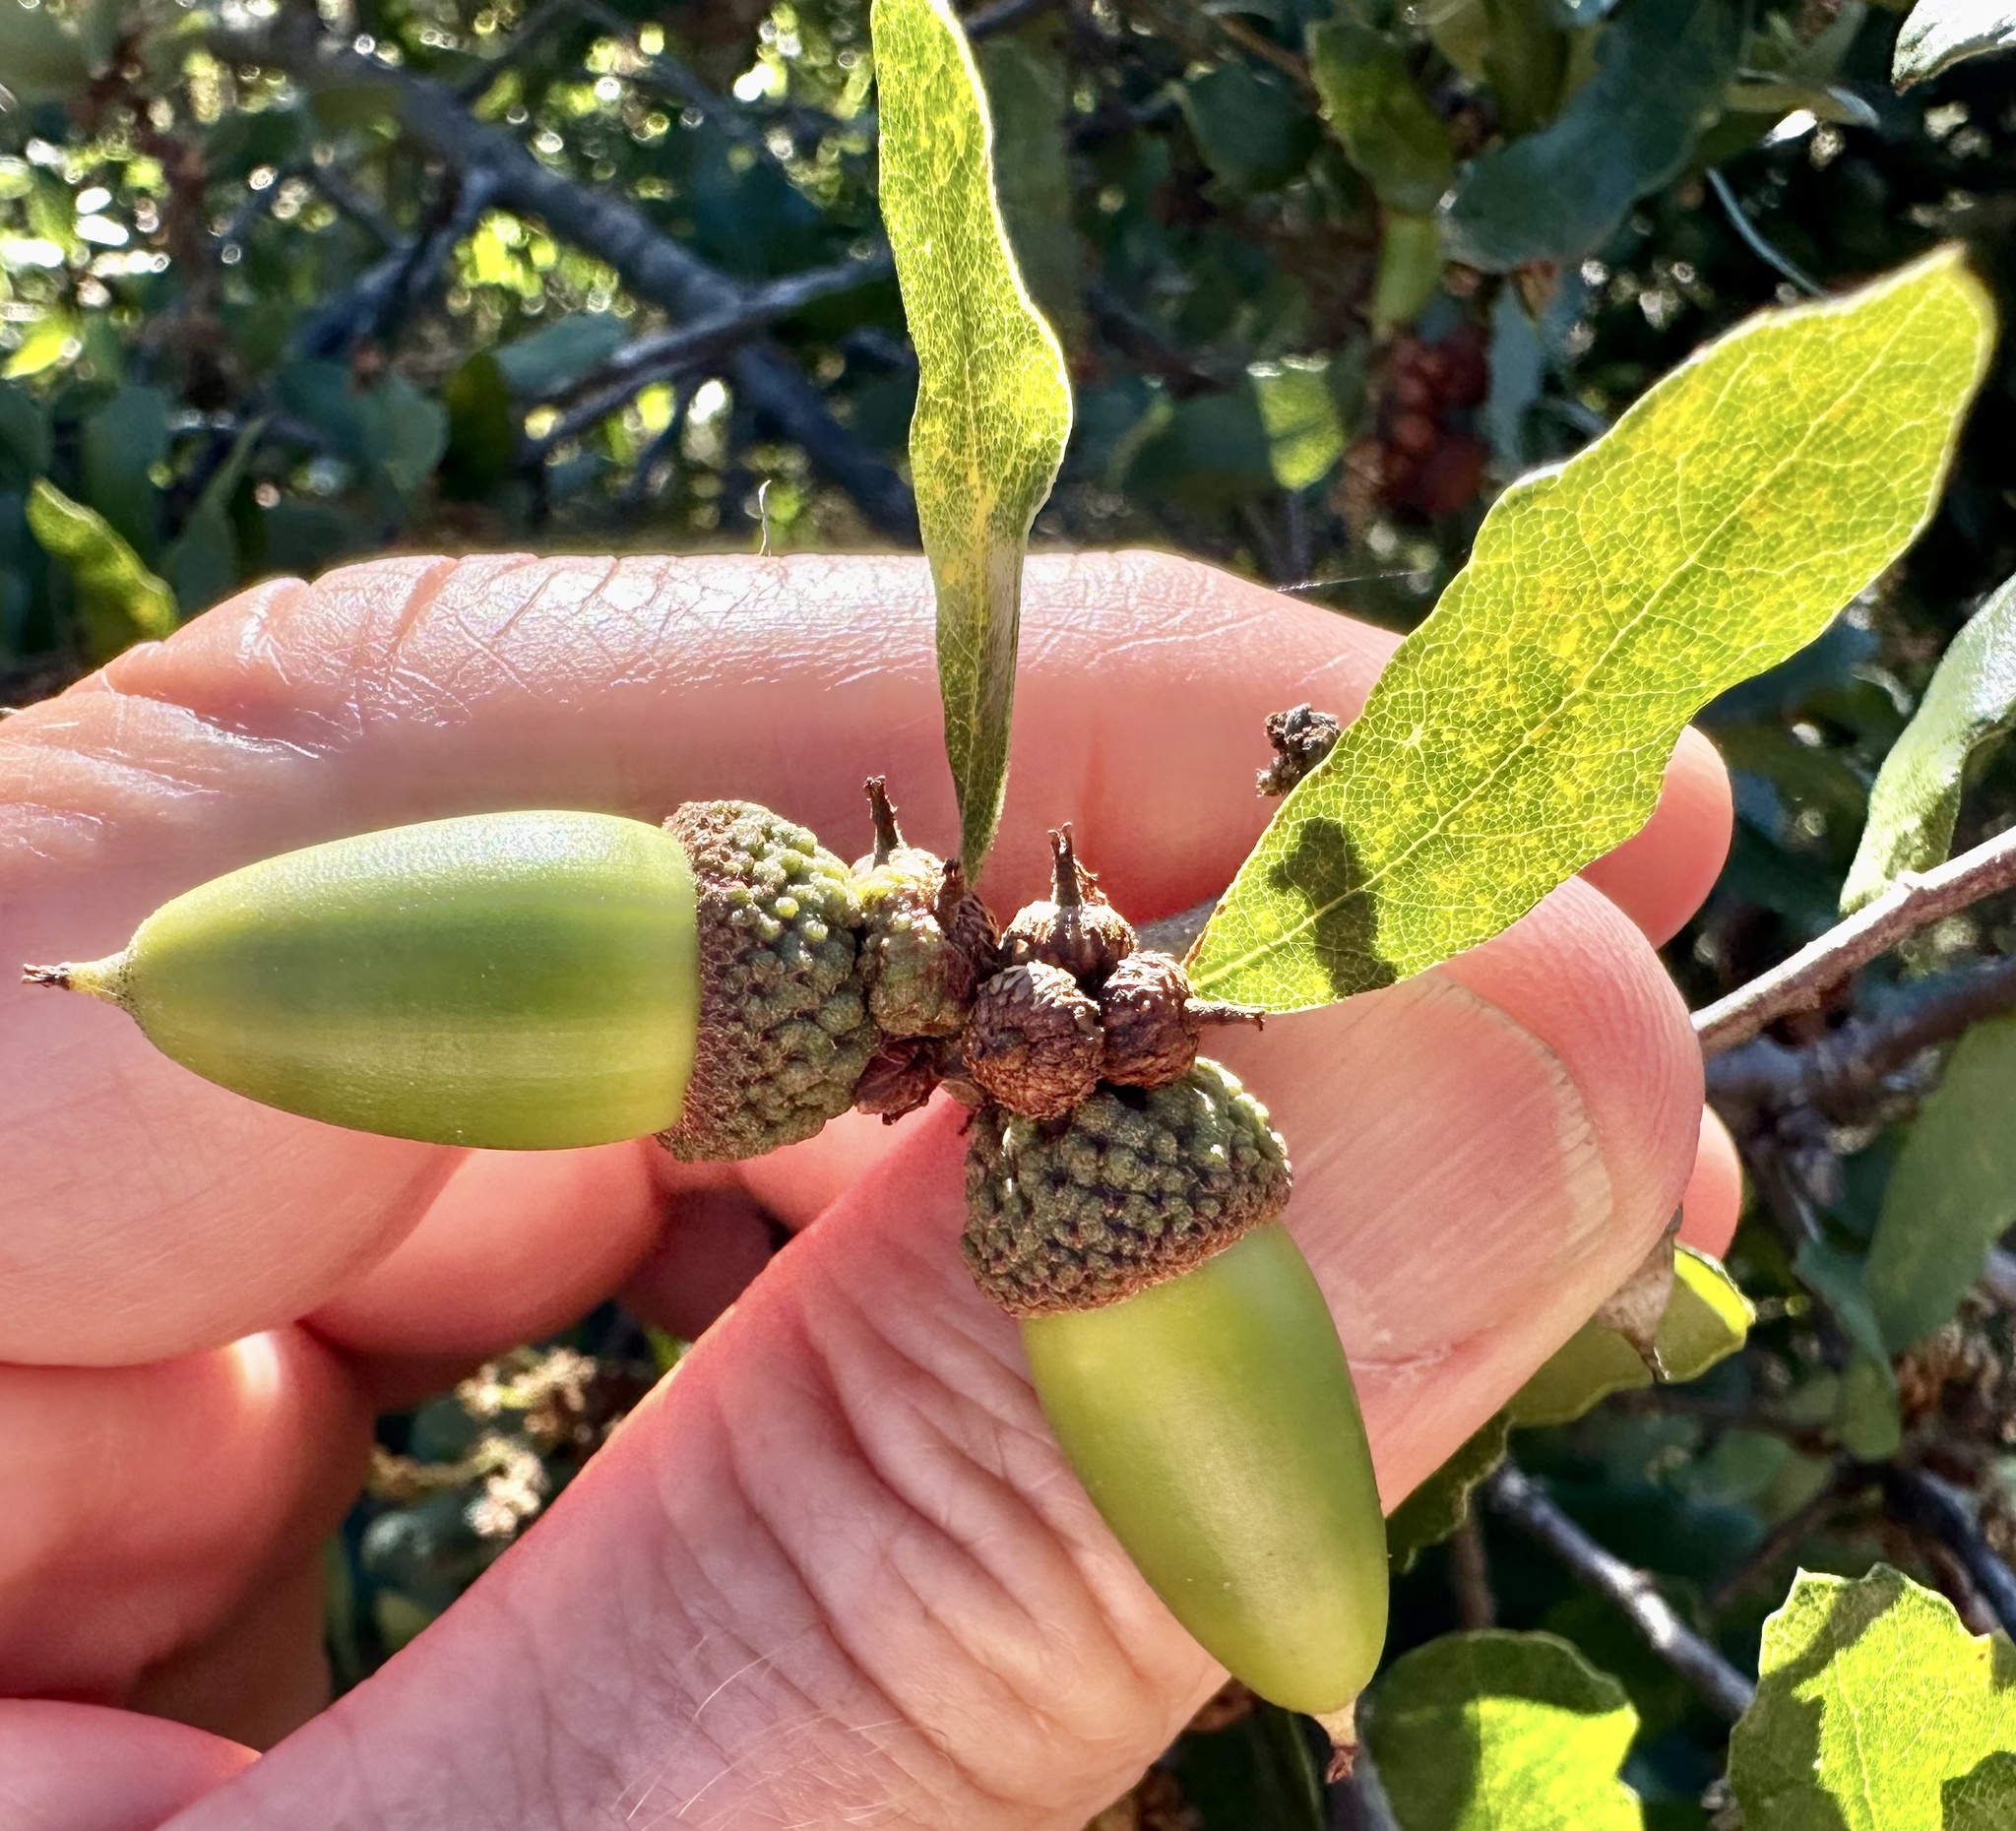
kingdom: Plantae
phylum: Tracheophyta
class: Magnoliopsida
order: Fagales
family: Fagaceae
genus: Quercus
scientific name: Quercus acutidens
